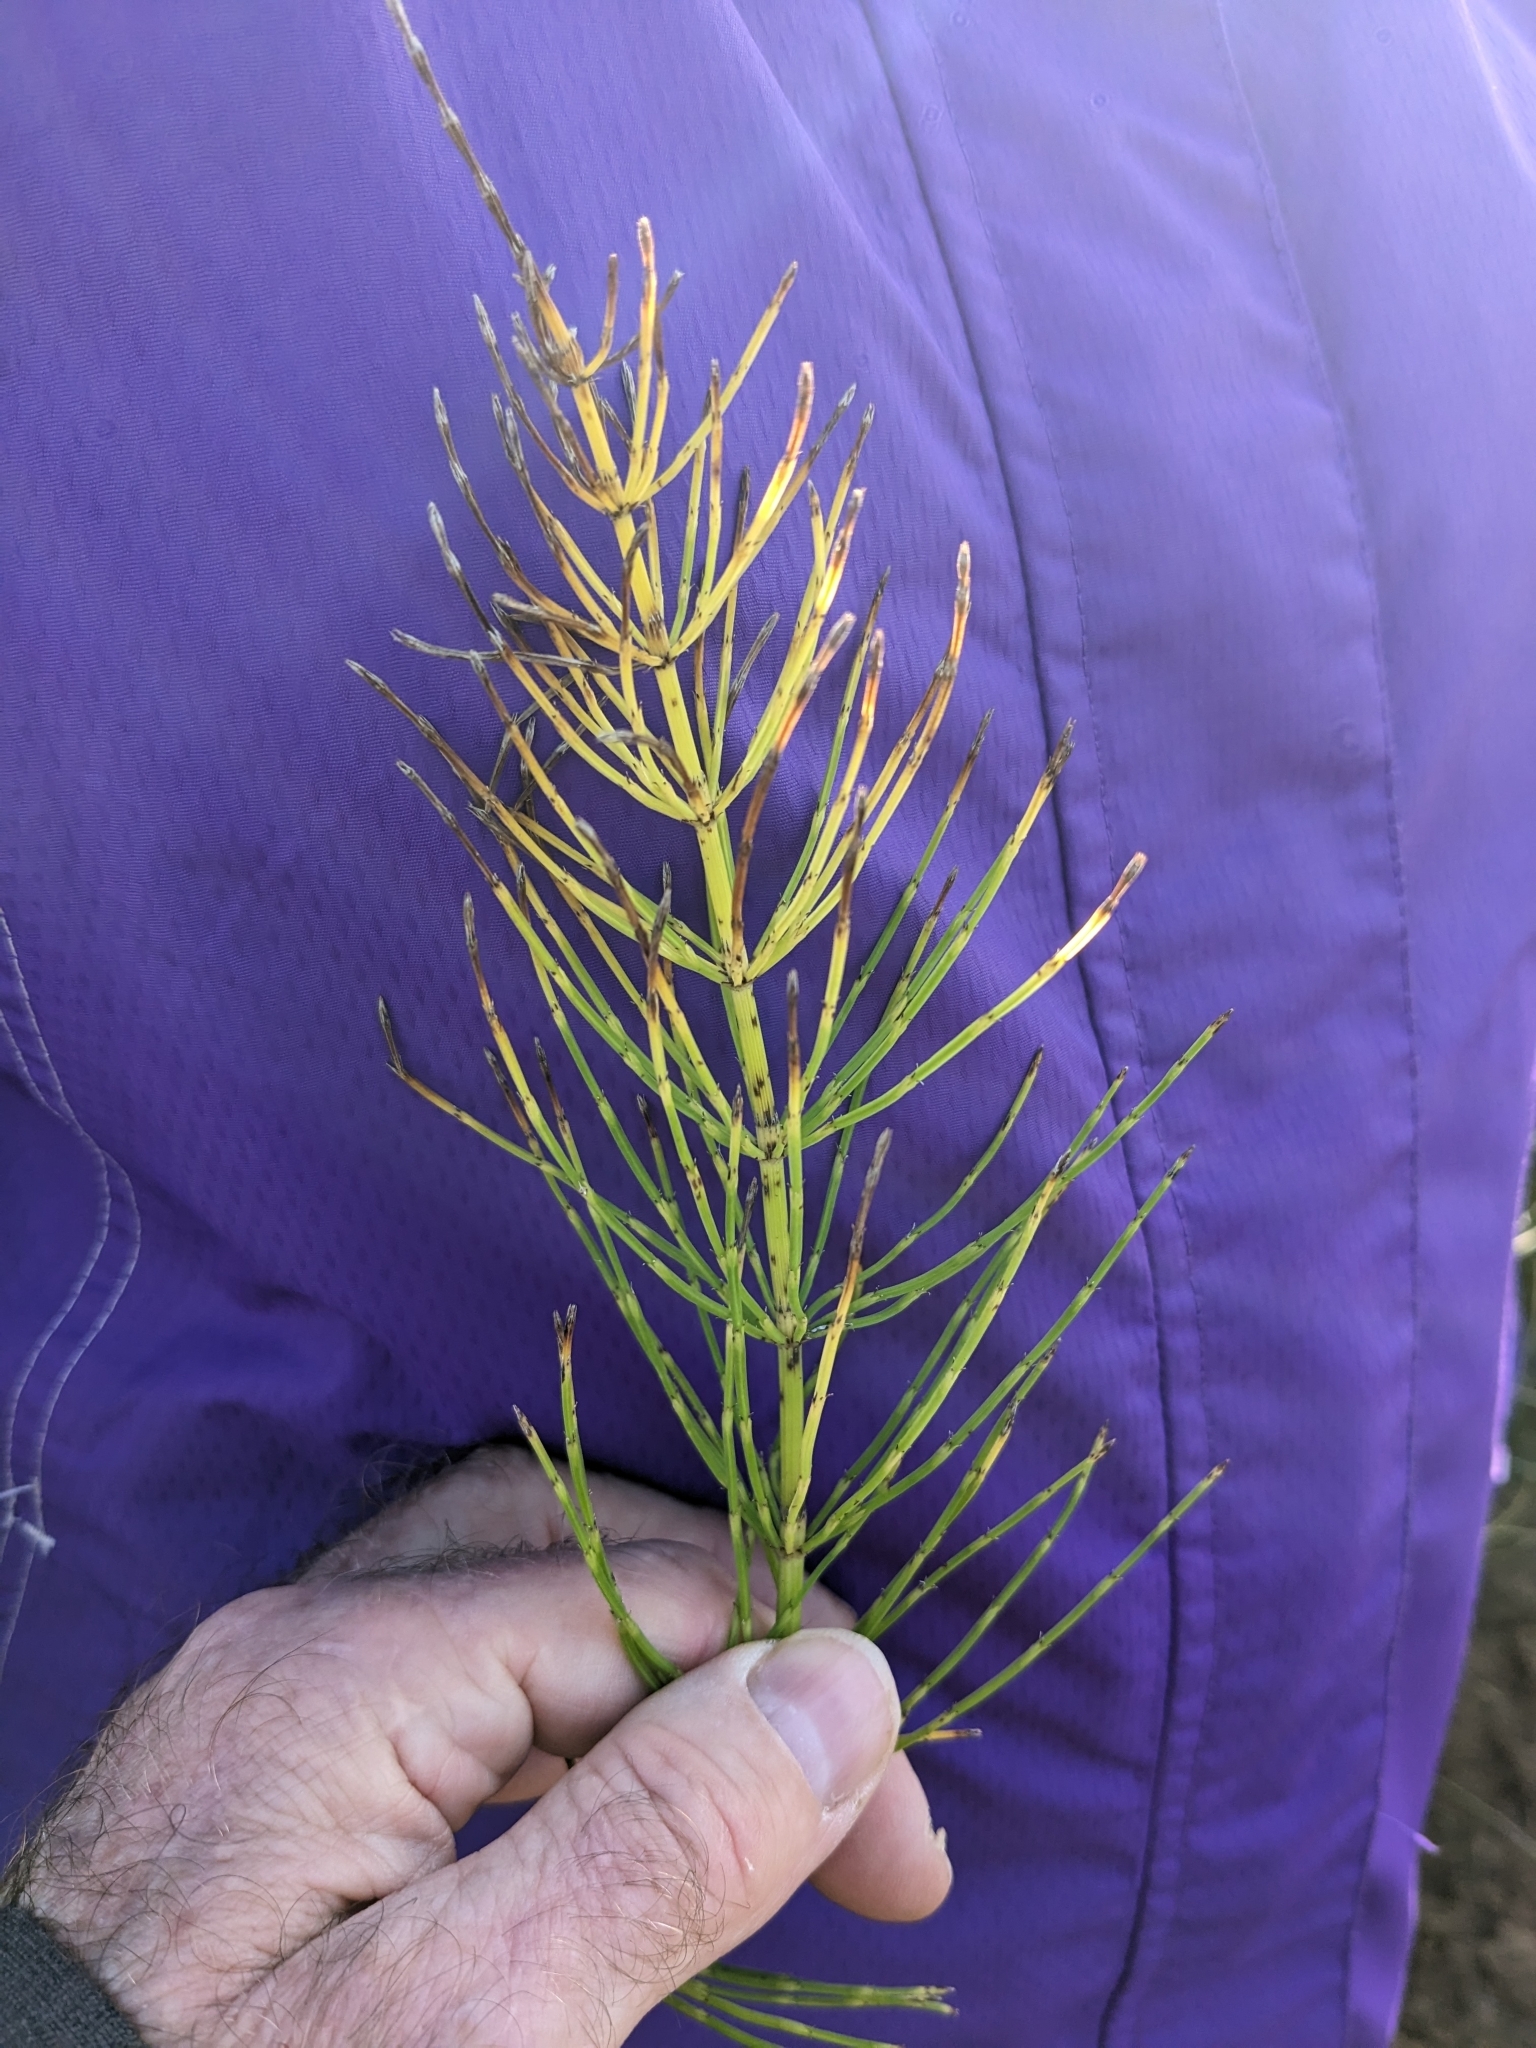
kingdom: Plantae
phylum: Tracheophyta
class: Polypodiopsida
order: Equisetales
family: Equisetaceae
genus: Equisetum
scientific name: Equisetum arvense
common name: Field horsetail
